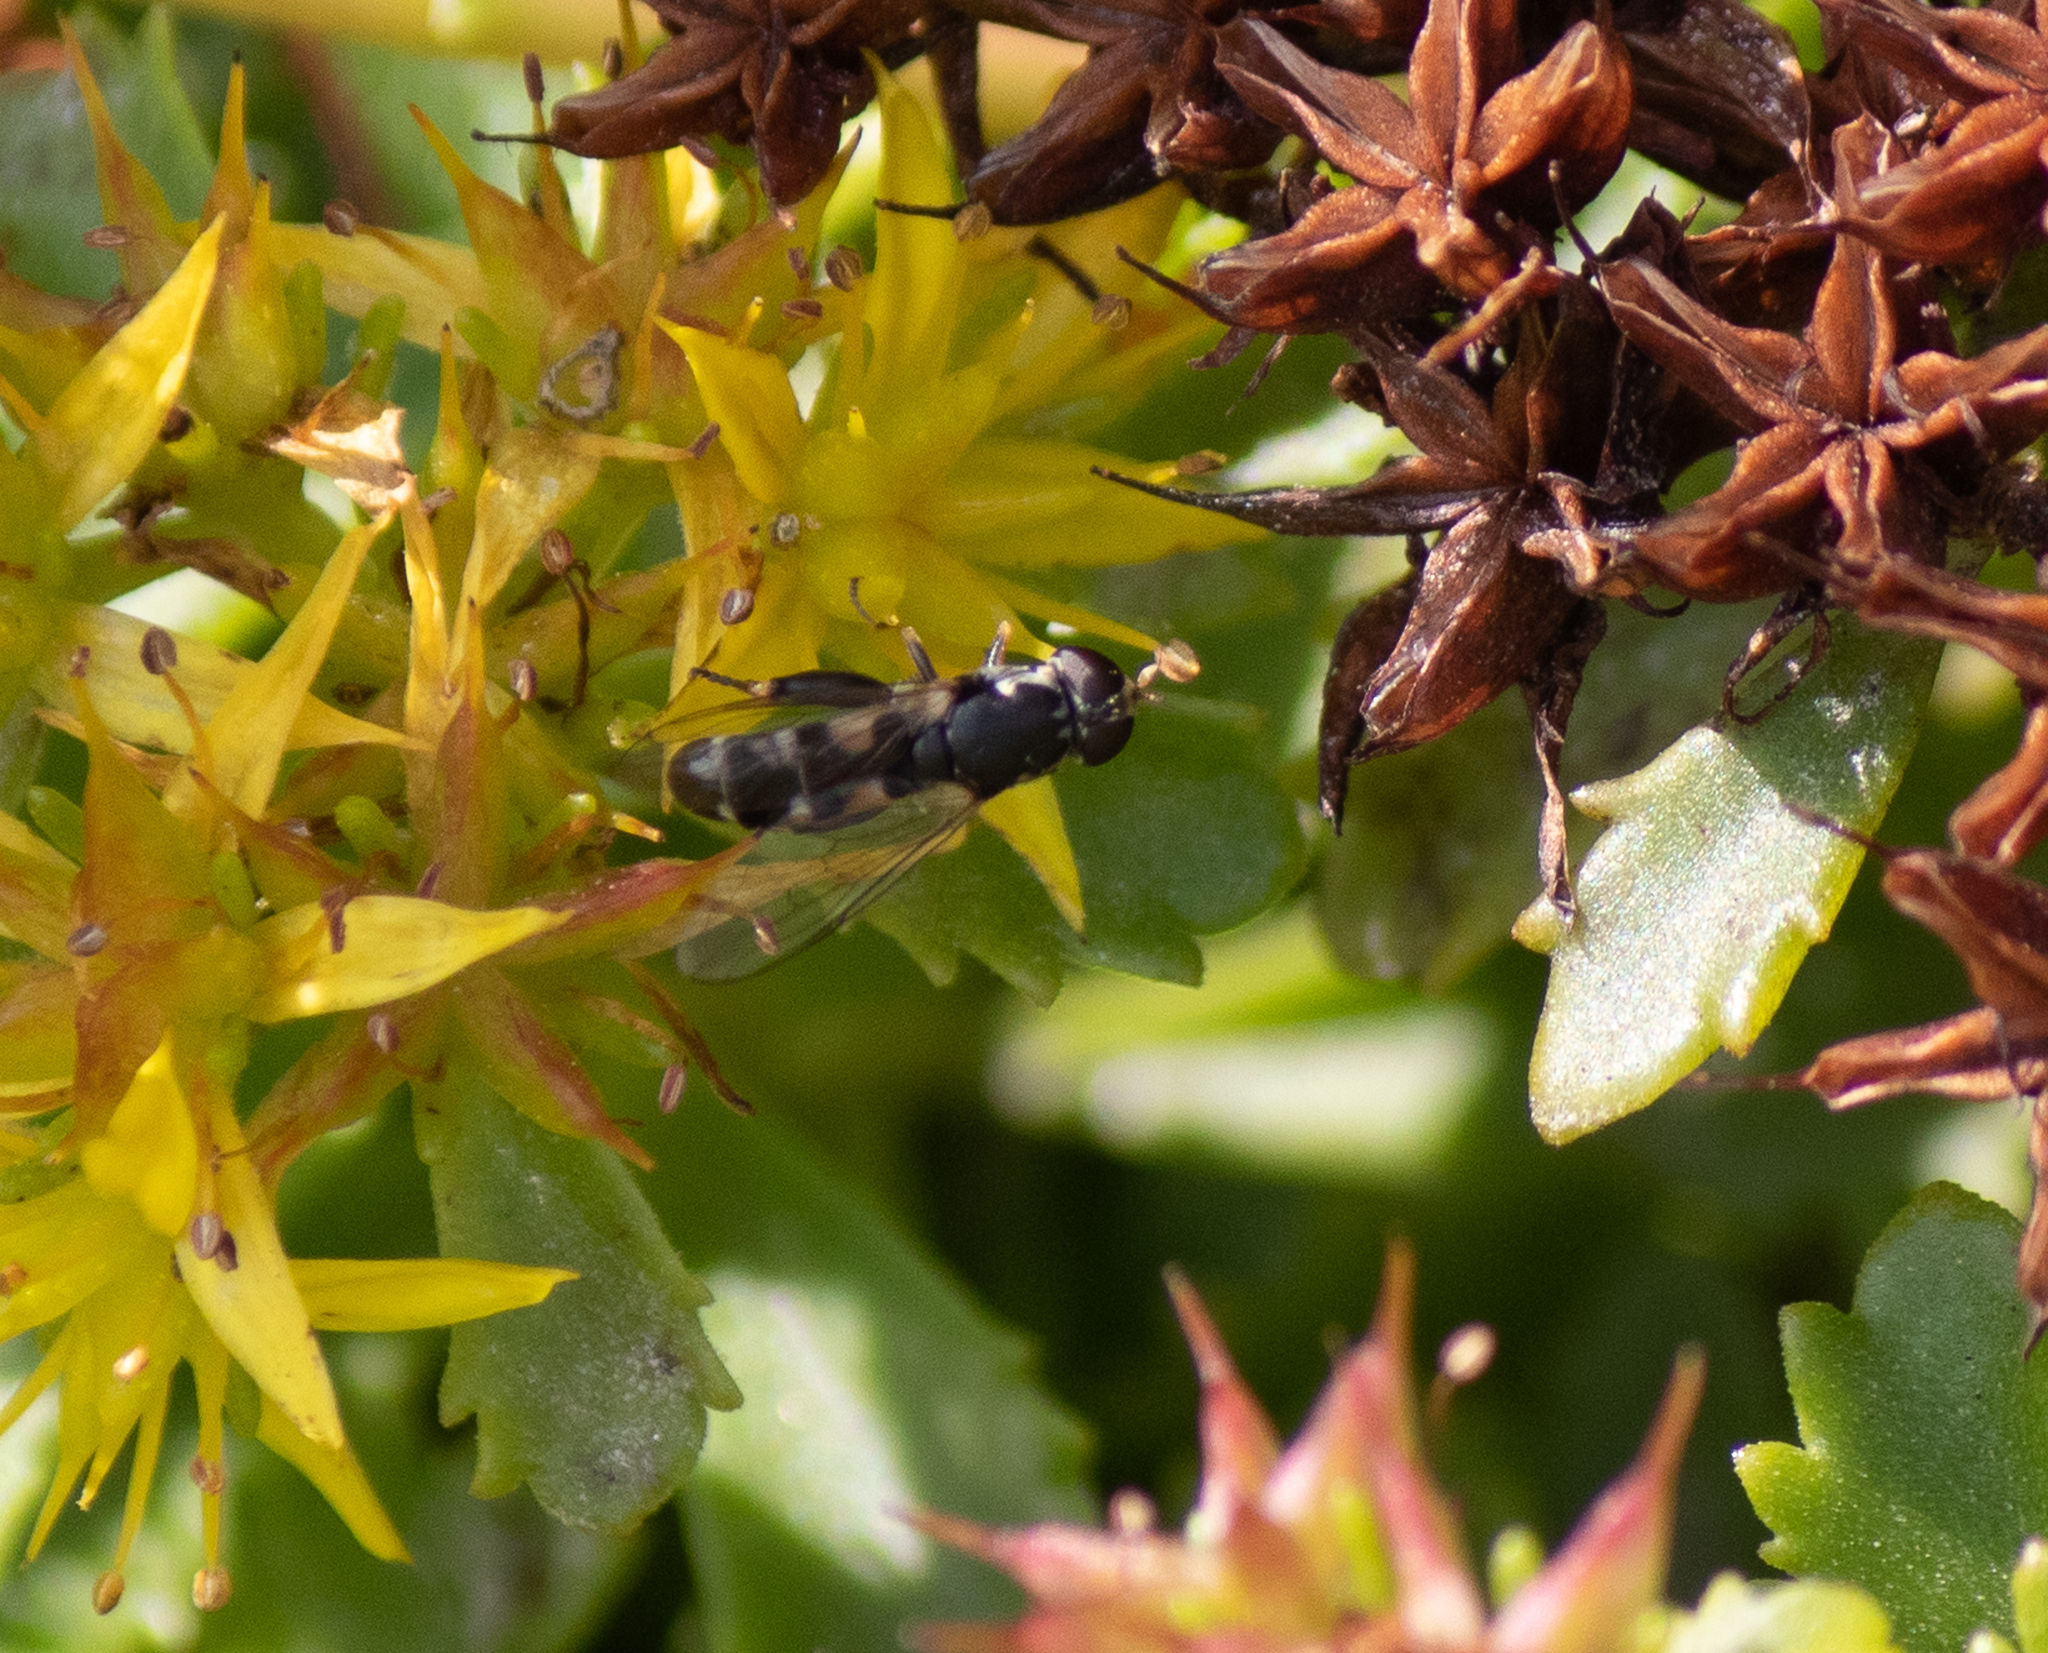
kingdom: Animalia
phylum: Arthropoda
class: Insecta
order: Diptera
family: Syrphidae
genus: Syritta
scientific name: Syritta pipiens
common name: Hover fly
